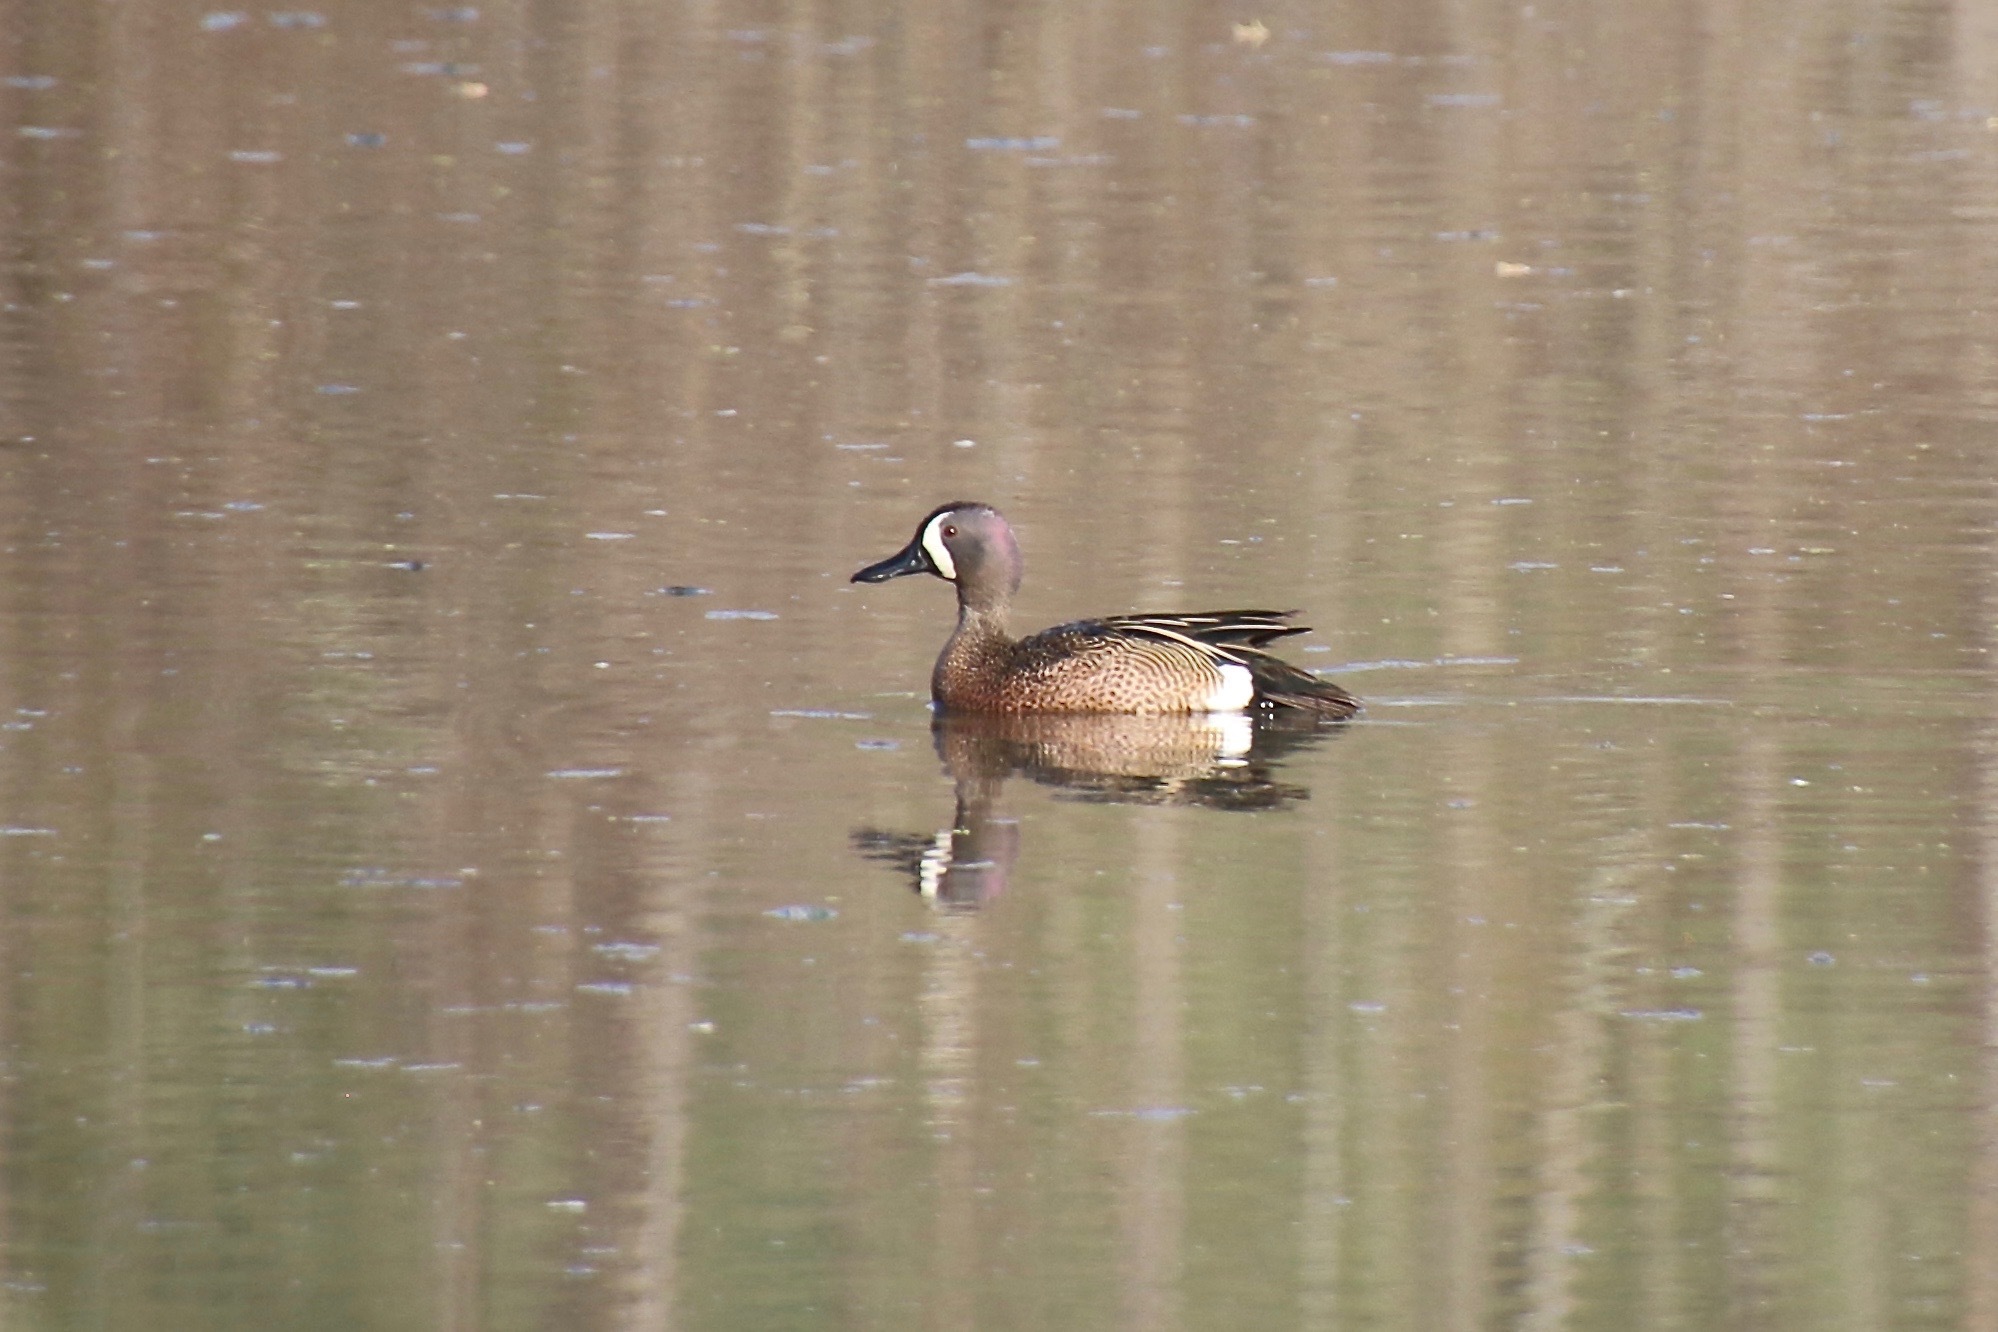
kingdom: Animalia
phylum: Chordata
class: Aves
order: Anseriformes
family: Anatidae
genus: Spatula
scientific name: Spatula discors
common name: Blue-winged teal
